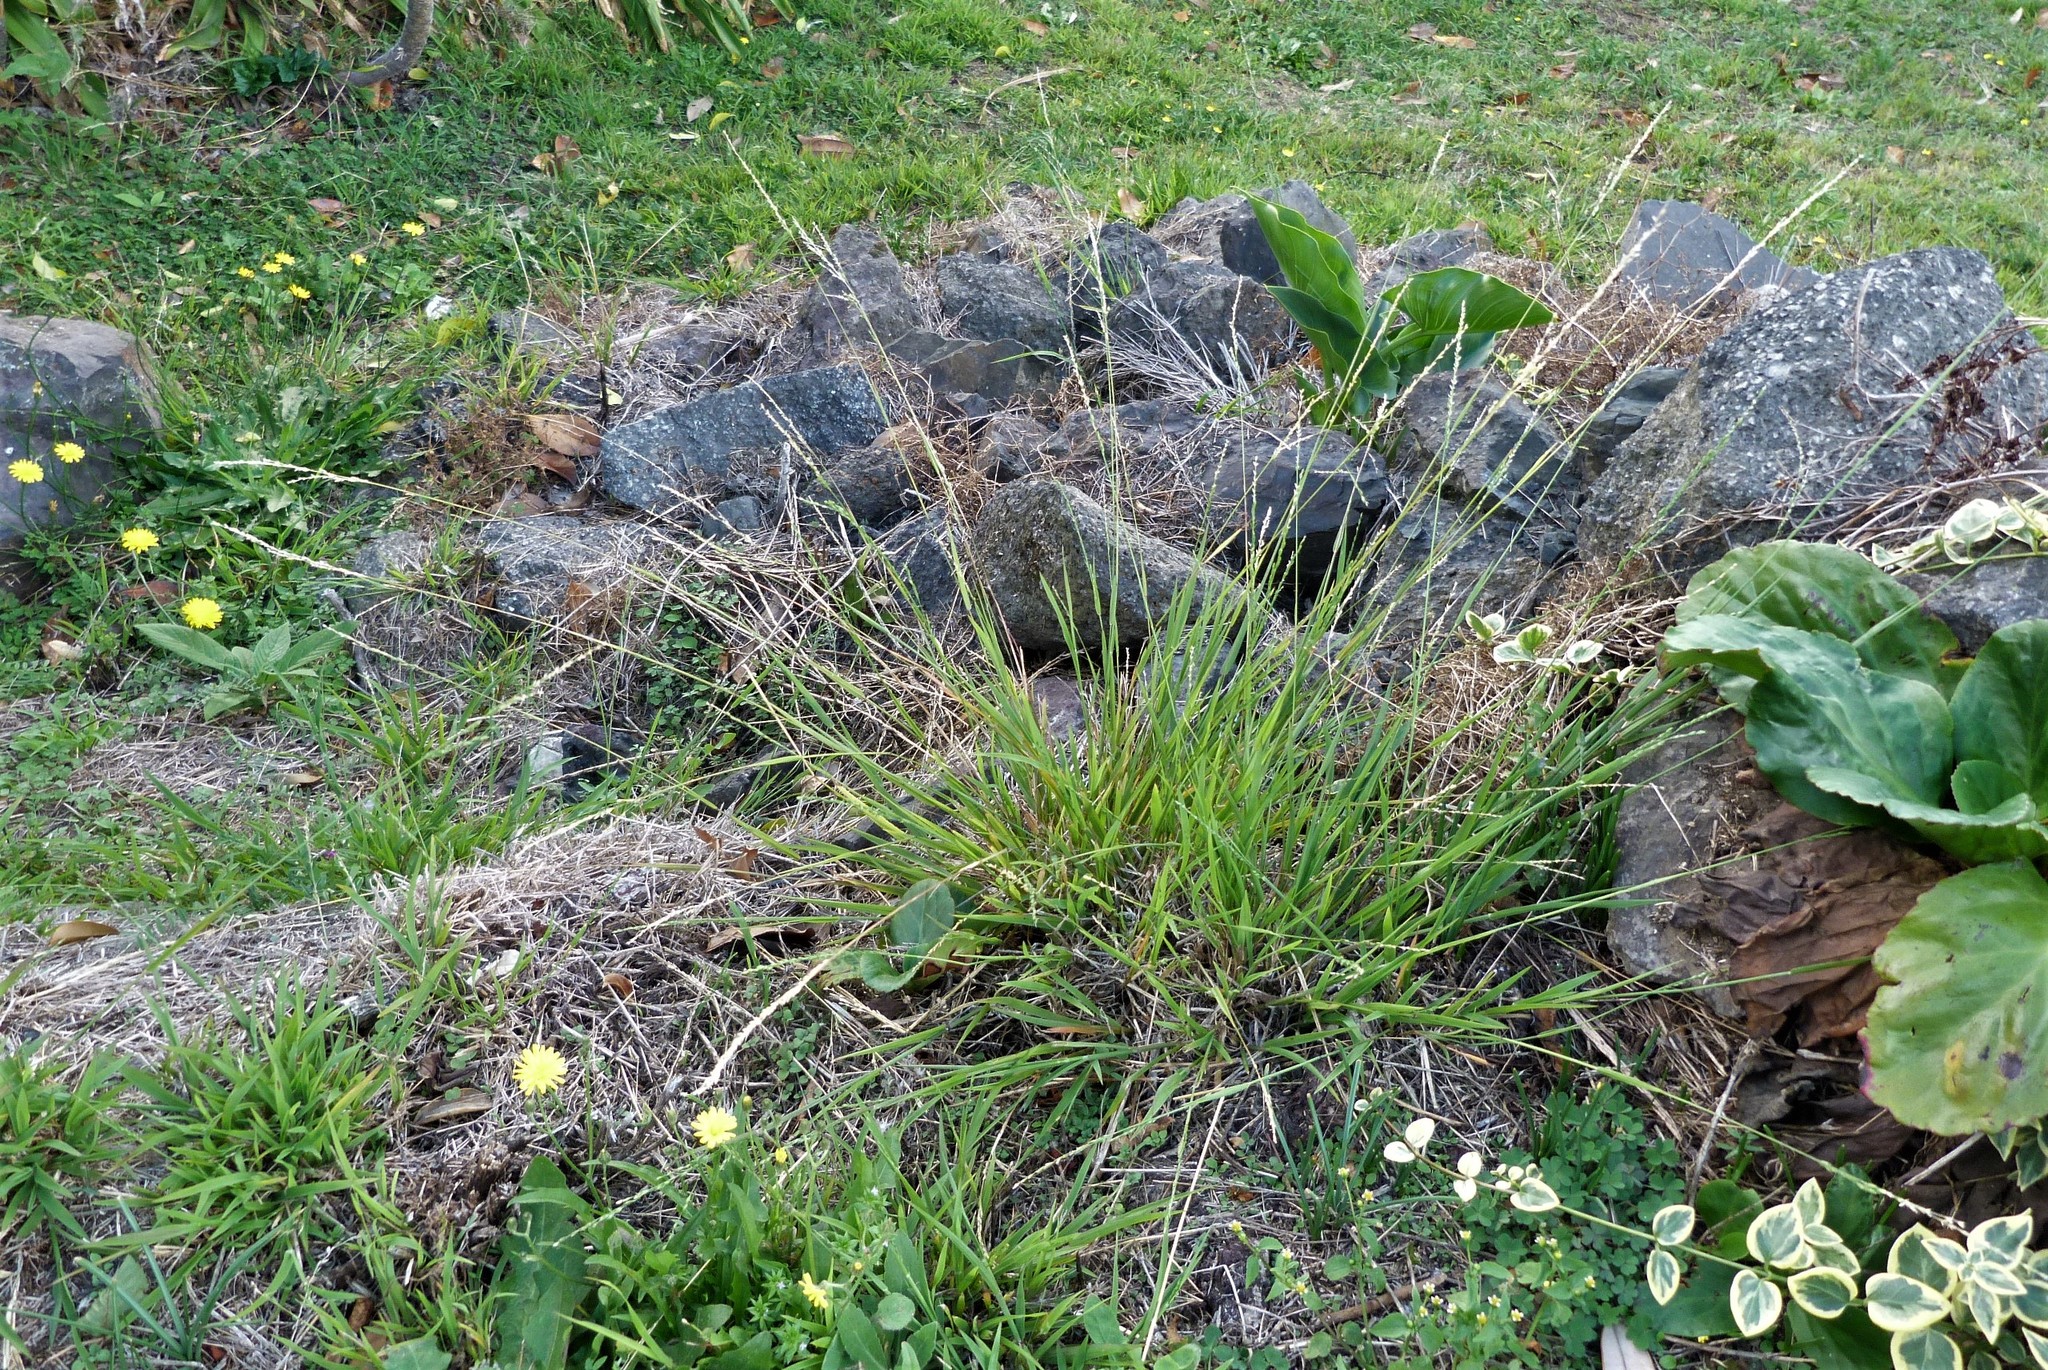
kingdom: Plantae
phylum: Tracheophyta
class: Liliopsida
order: Poales
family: Poaceae
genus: Ehrharta
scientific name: Ehrharta erecta
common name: Panic veldtgrass
